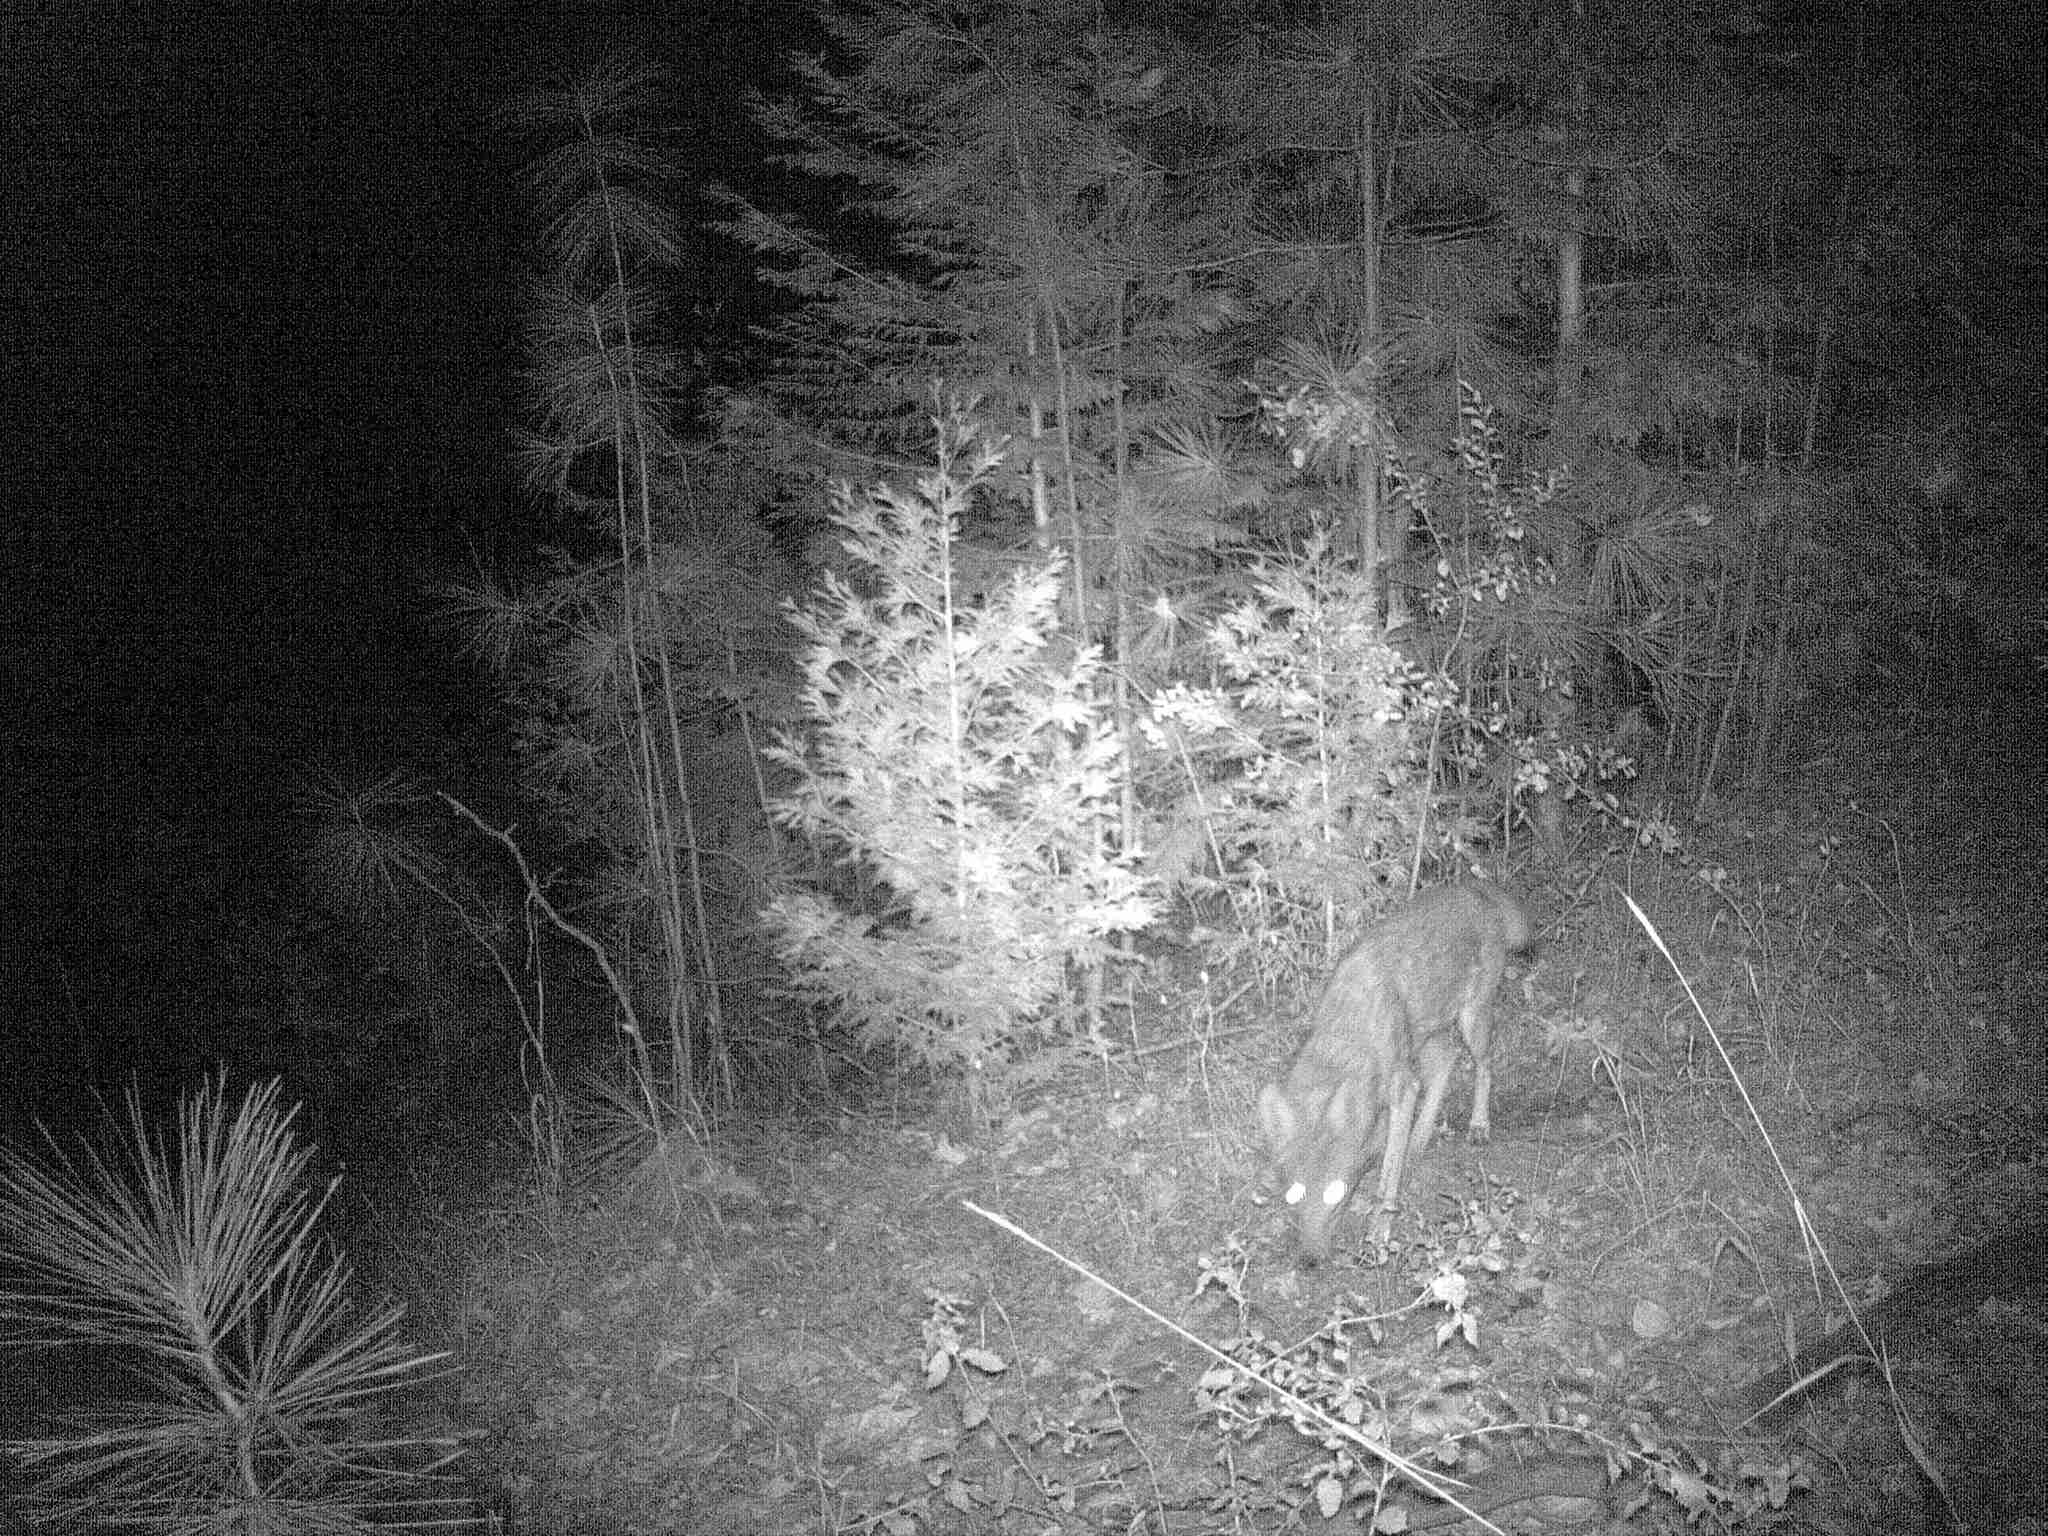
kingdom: Animalia
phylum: Chordata
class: Mammalia
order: Carnivora
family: Canidae
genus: Canis
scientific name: Canis latrans
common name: Coyote
